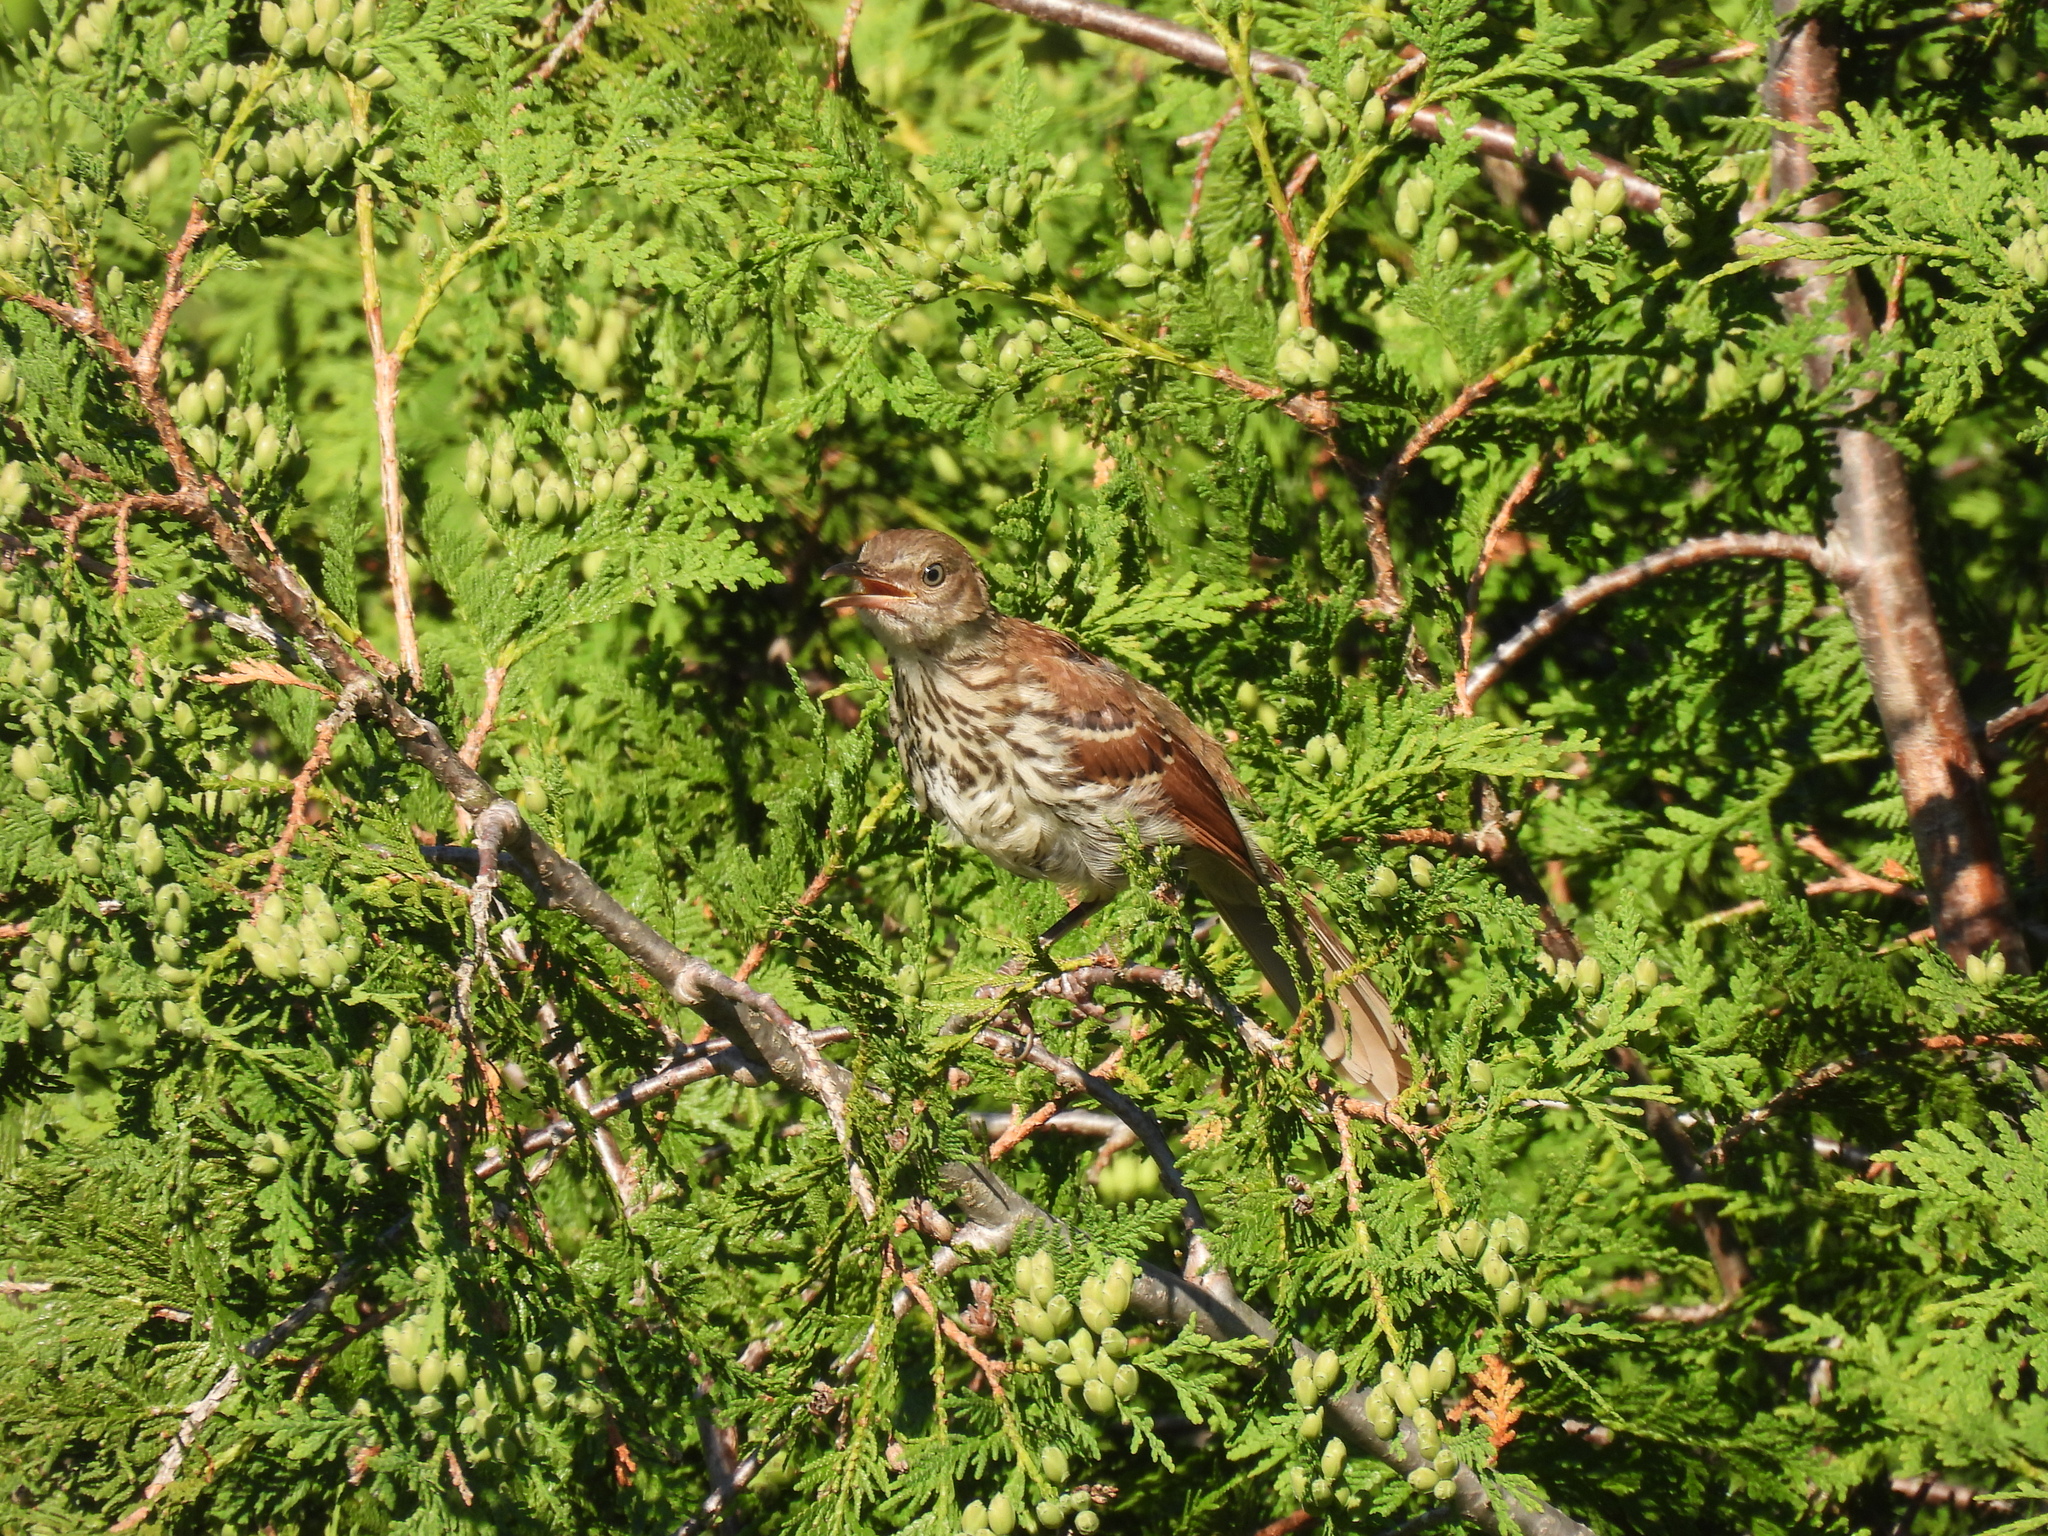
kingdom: Animalia
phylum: Chordata
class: Aves
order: Passeriformes
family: Mimidae
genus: Toxostoma
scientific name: Toxostoma rufum
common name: Brown thrasher
